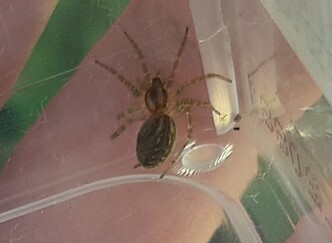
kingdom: Animalia
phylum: Arthropoda
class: Arachnida
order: Araneae
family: Agelenidae
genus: Allagelena
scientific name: Allagelena gracilens
